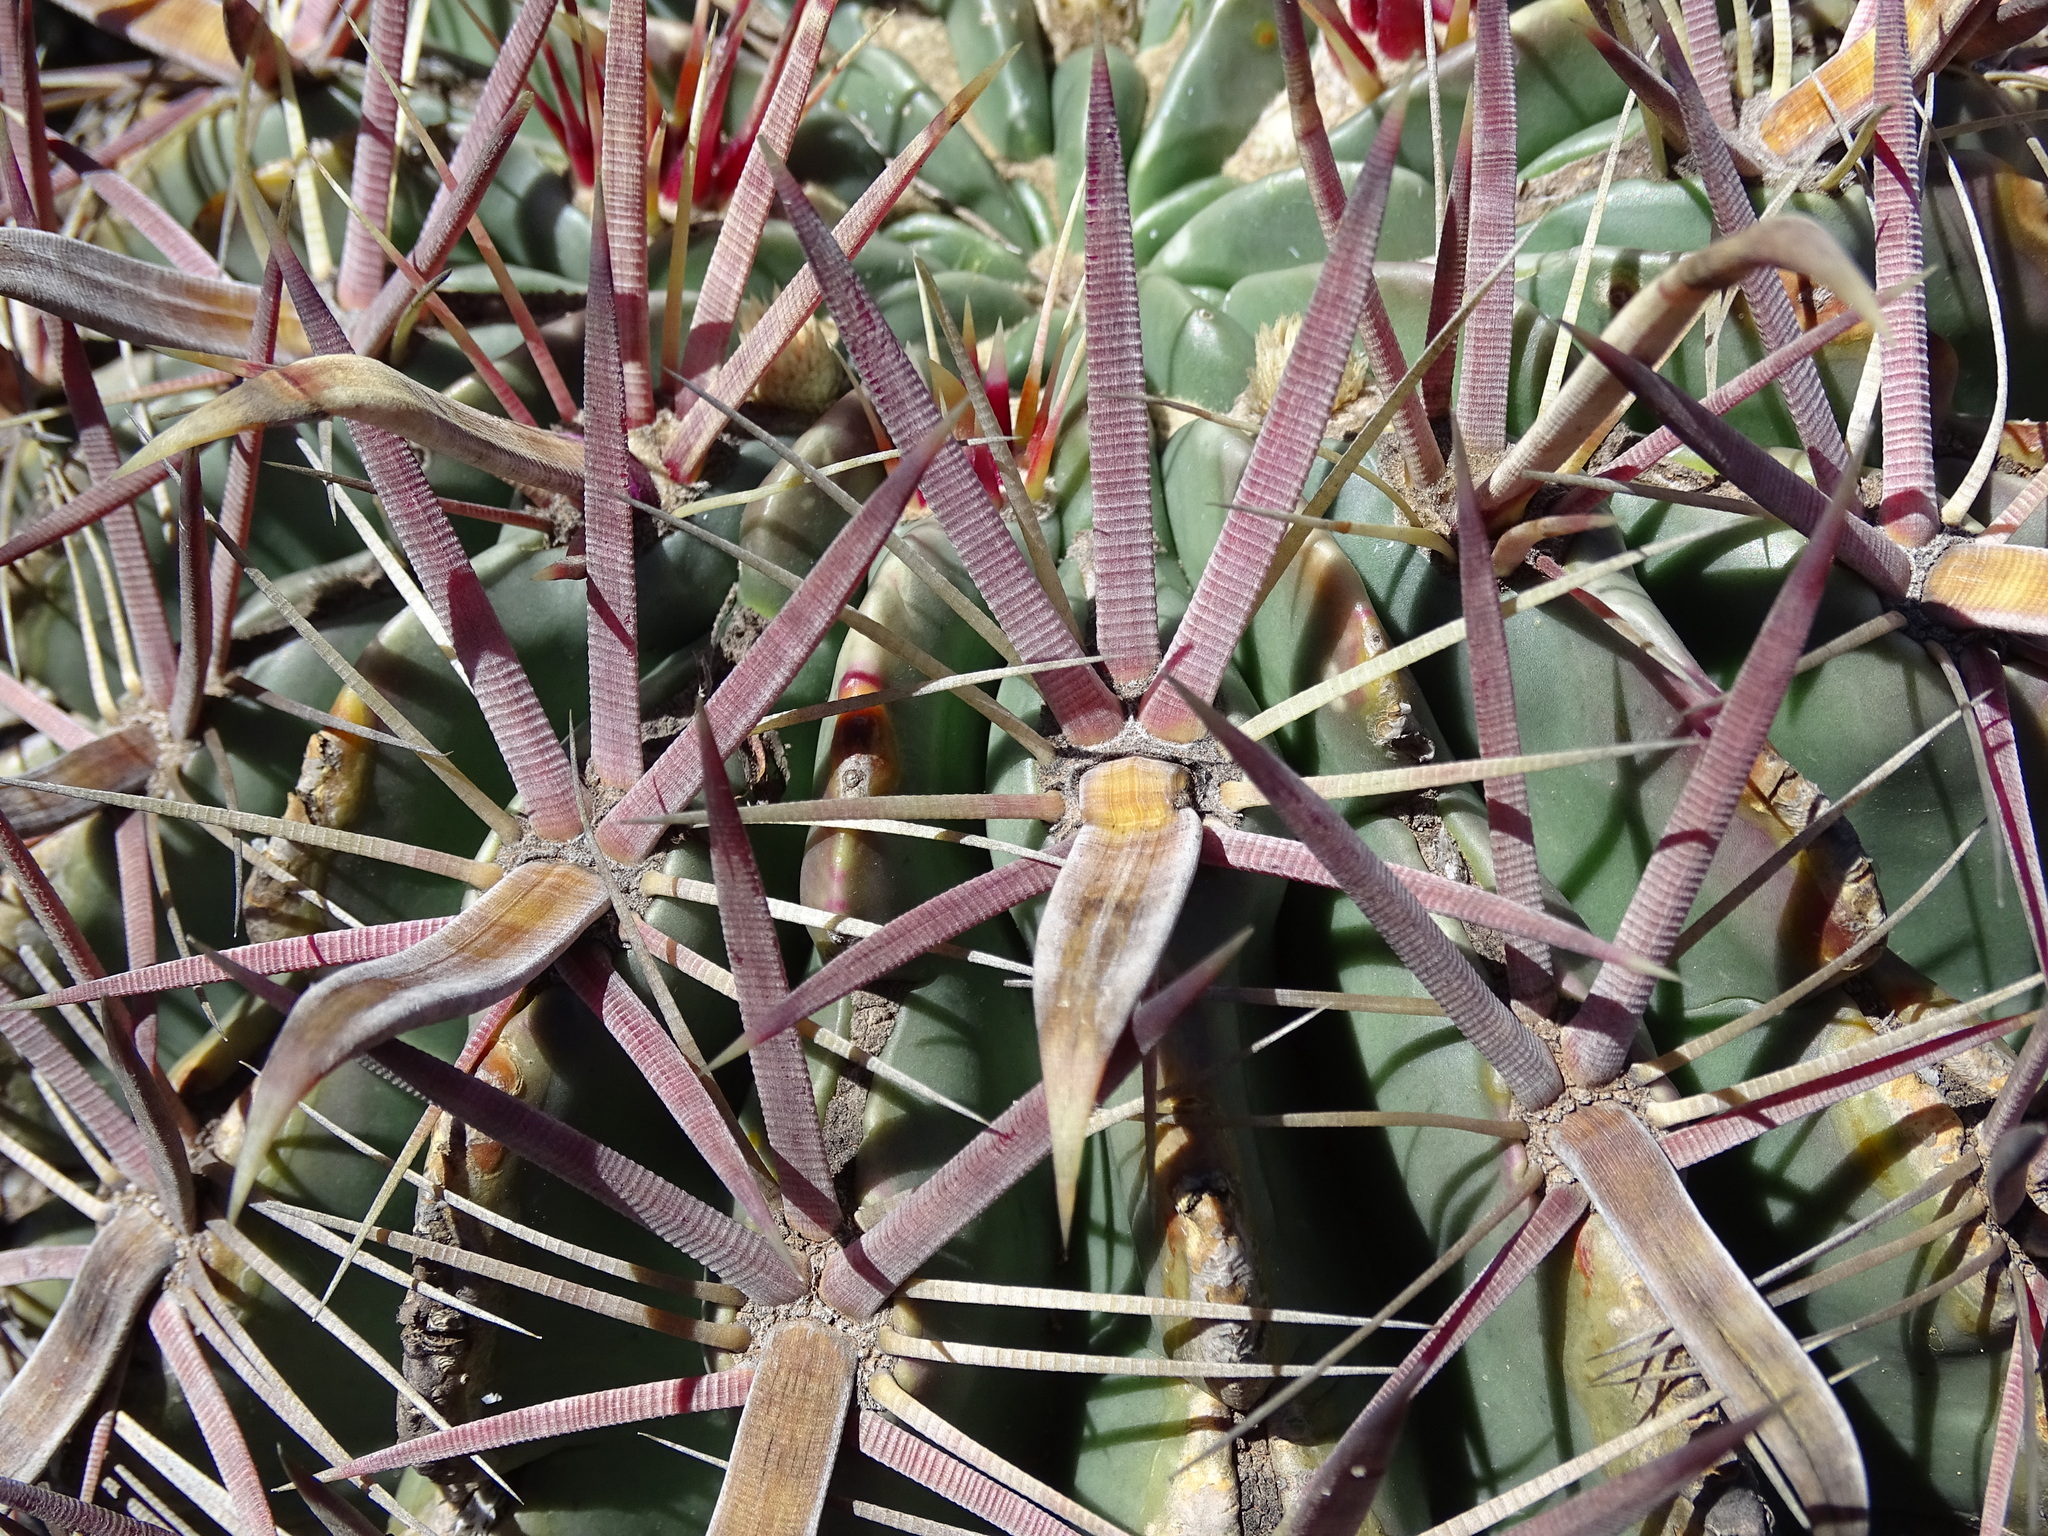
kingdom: Plantae
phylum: Tracheophyta
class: Magnoliopsida
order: Caryophyllales
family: Cactaceae
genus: Ferocactus
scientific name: Ferocactus latispinus
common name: Devil's-tongue cactus
